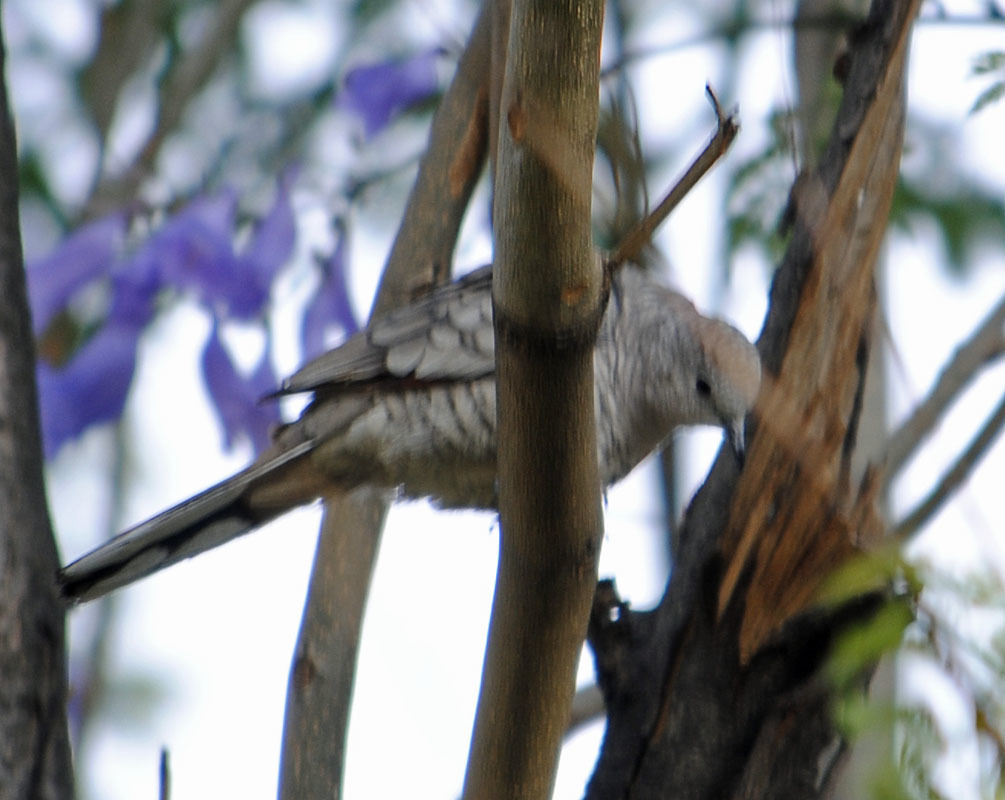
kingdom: Animalia
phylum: Chordata
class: Aves
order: Columbiformes
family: Columbidae
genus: Columbina
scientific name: Columbina inca
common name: Inca dove
